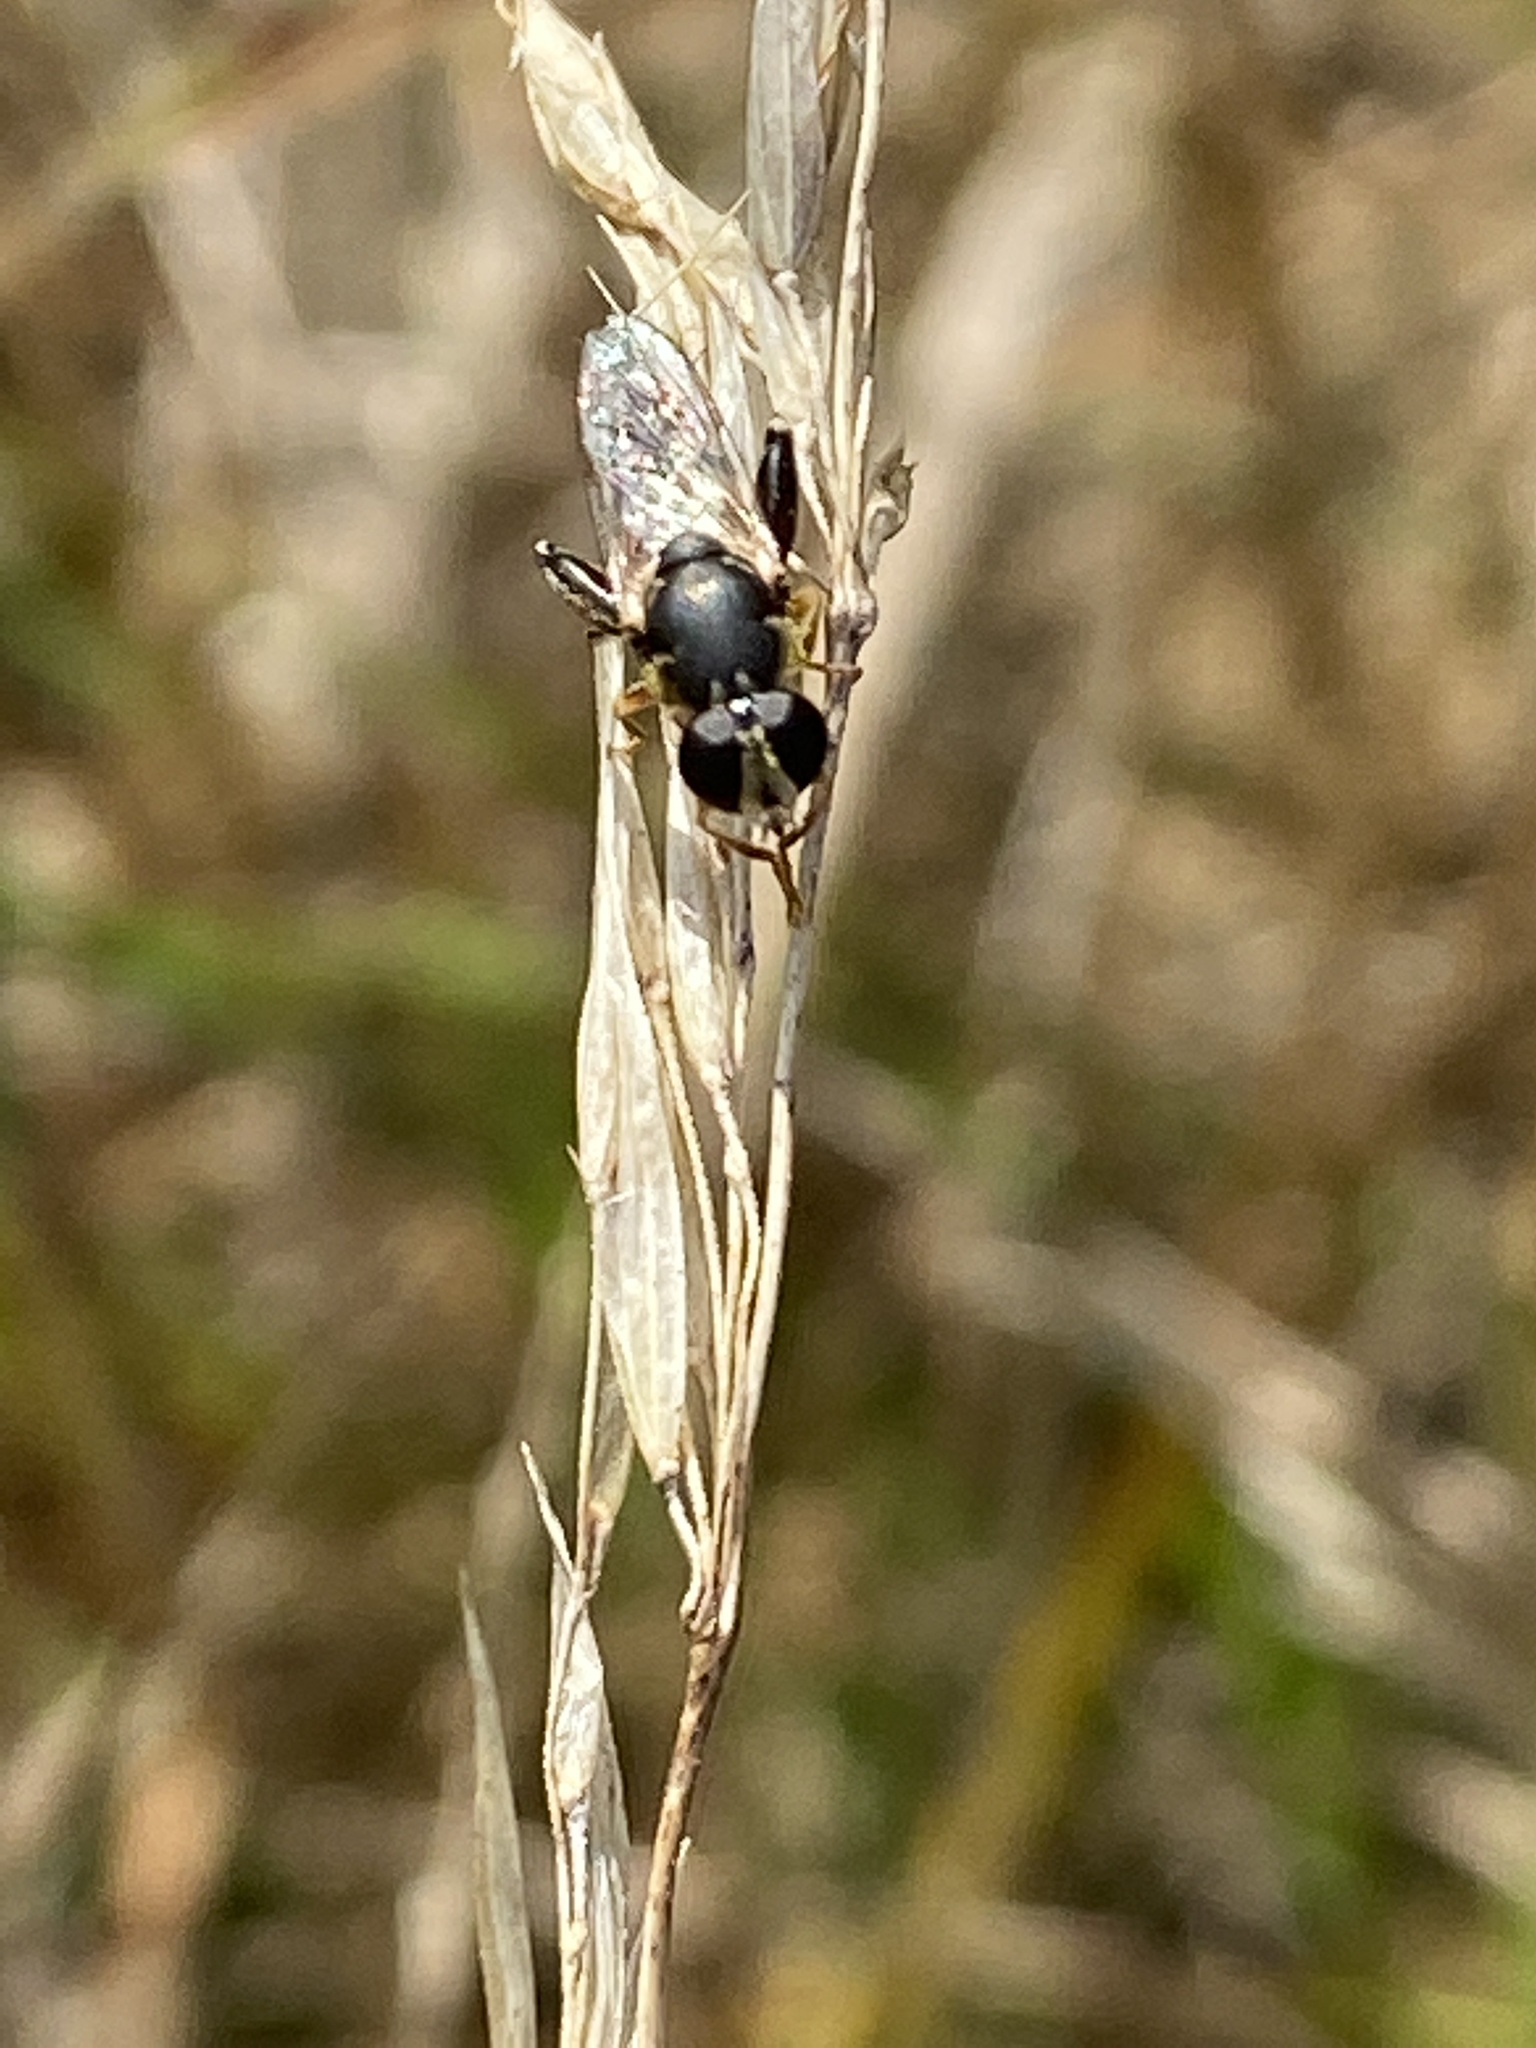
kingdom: Animalia
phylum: Arthropoda
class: Insecta
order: Diptera
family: Syrphidae
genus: Syritta
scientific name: Syritta pipiens
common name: Hover fly
